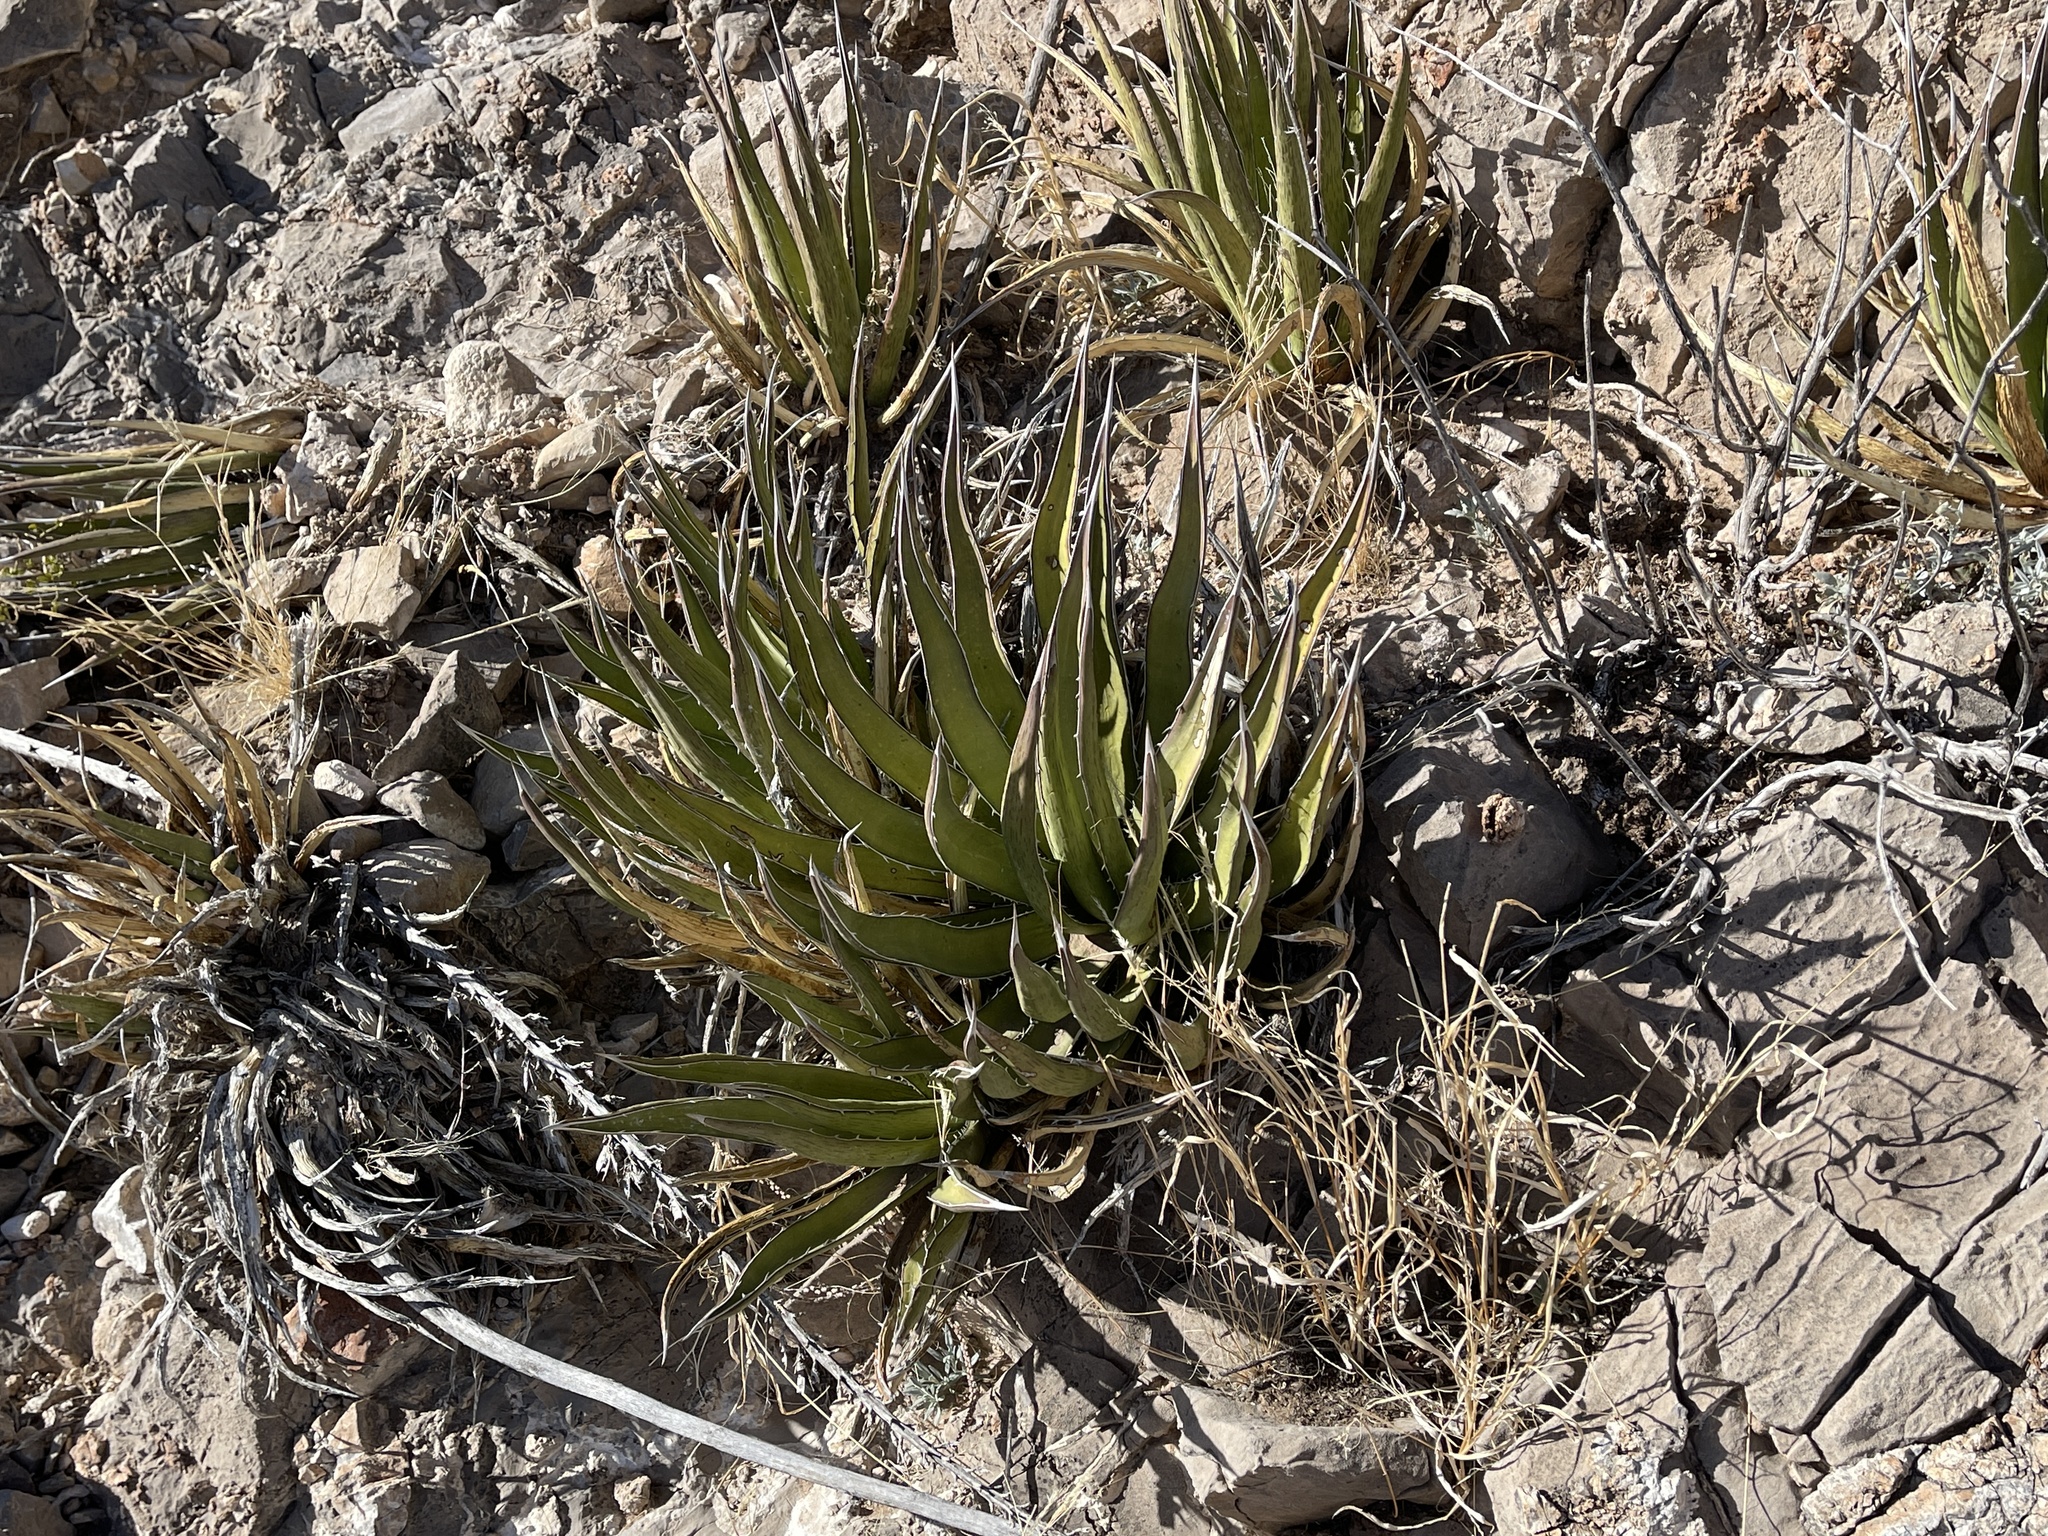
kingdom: Plantae
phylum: Tracheophyta
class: Liliopsida
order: Asparagales
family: Asparagaceae
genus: Agave
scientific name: Agave lechuguilla
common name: Lecheguilla agave
